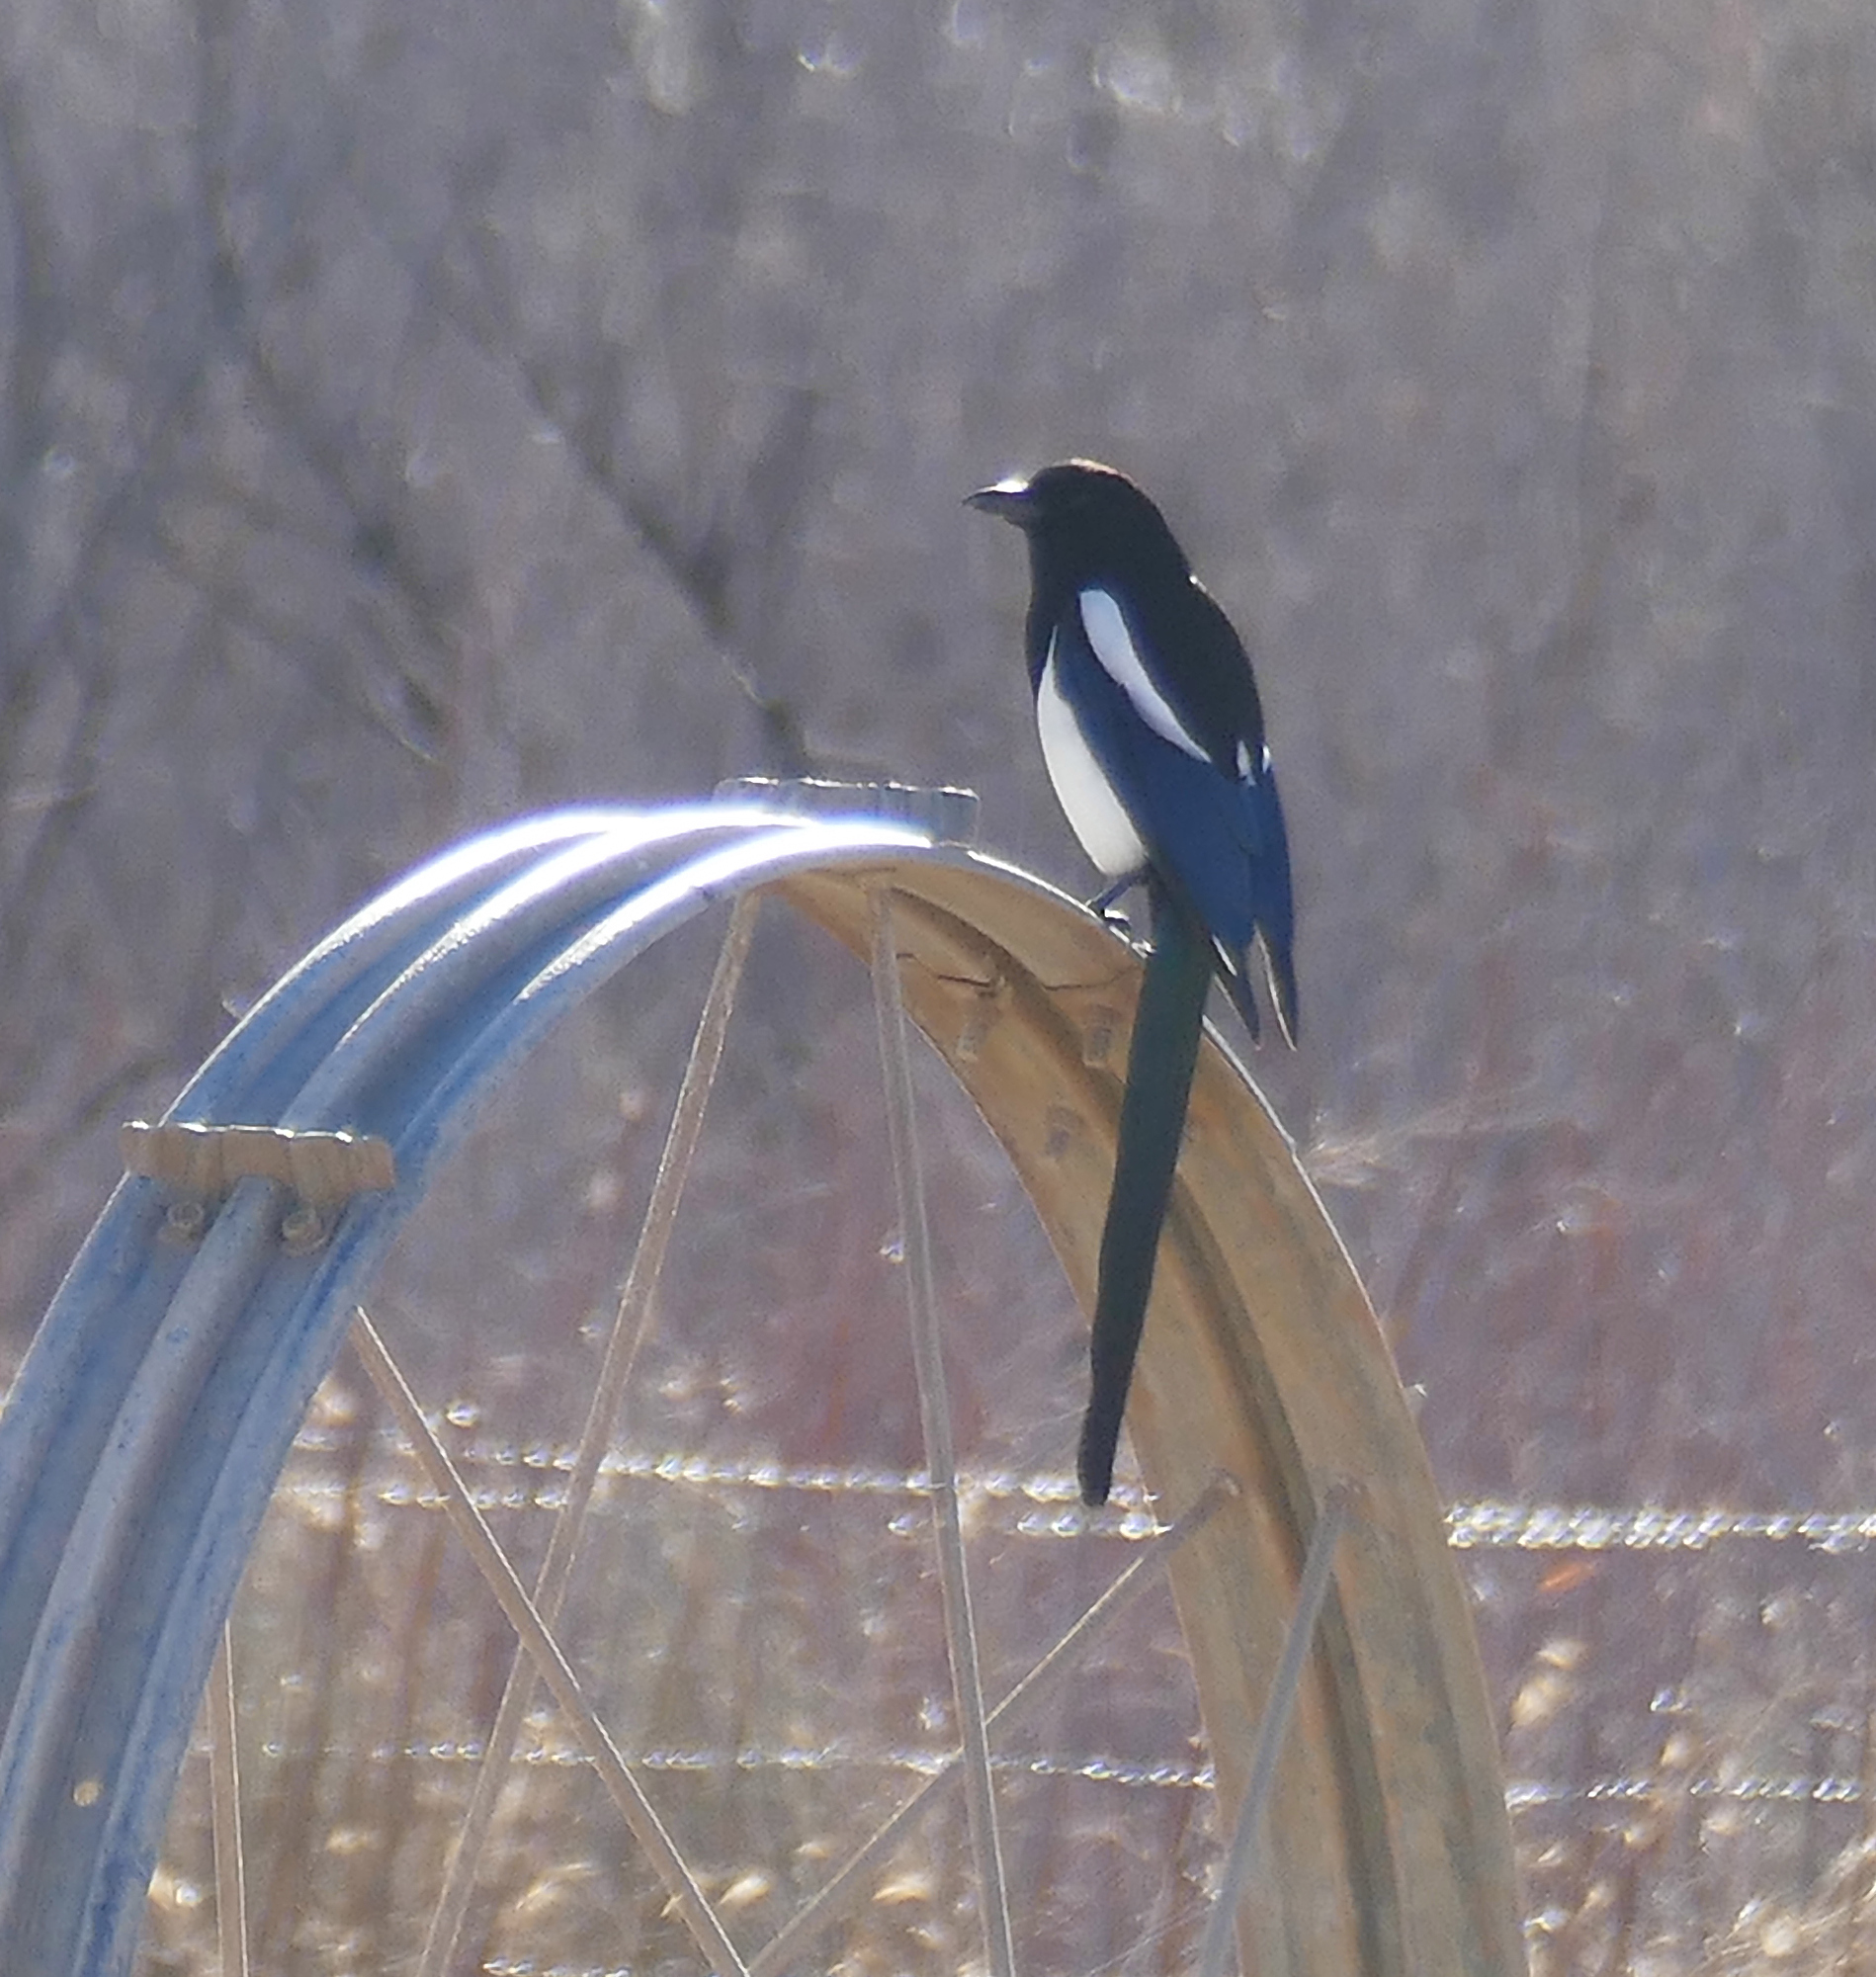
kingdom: Animalia
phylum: Chordata
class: Aves
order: Passeriformes
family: Corvidae
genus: Pica
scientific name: Pica hudsonia
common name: Black-billed magpie
